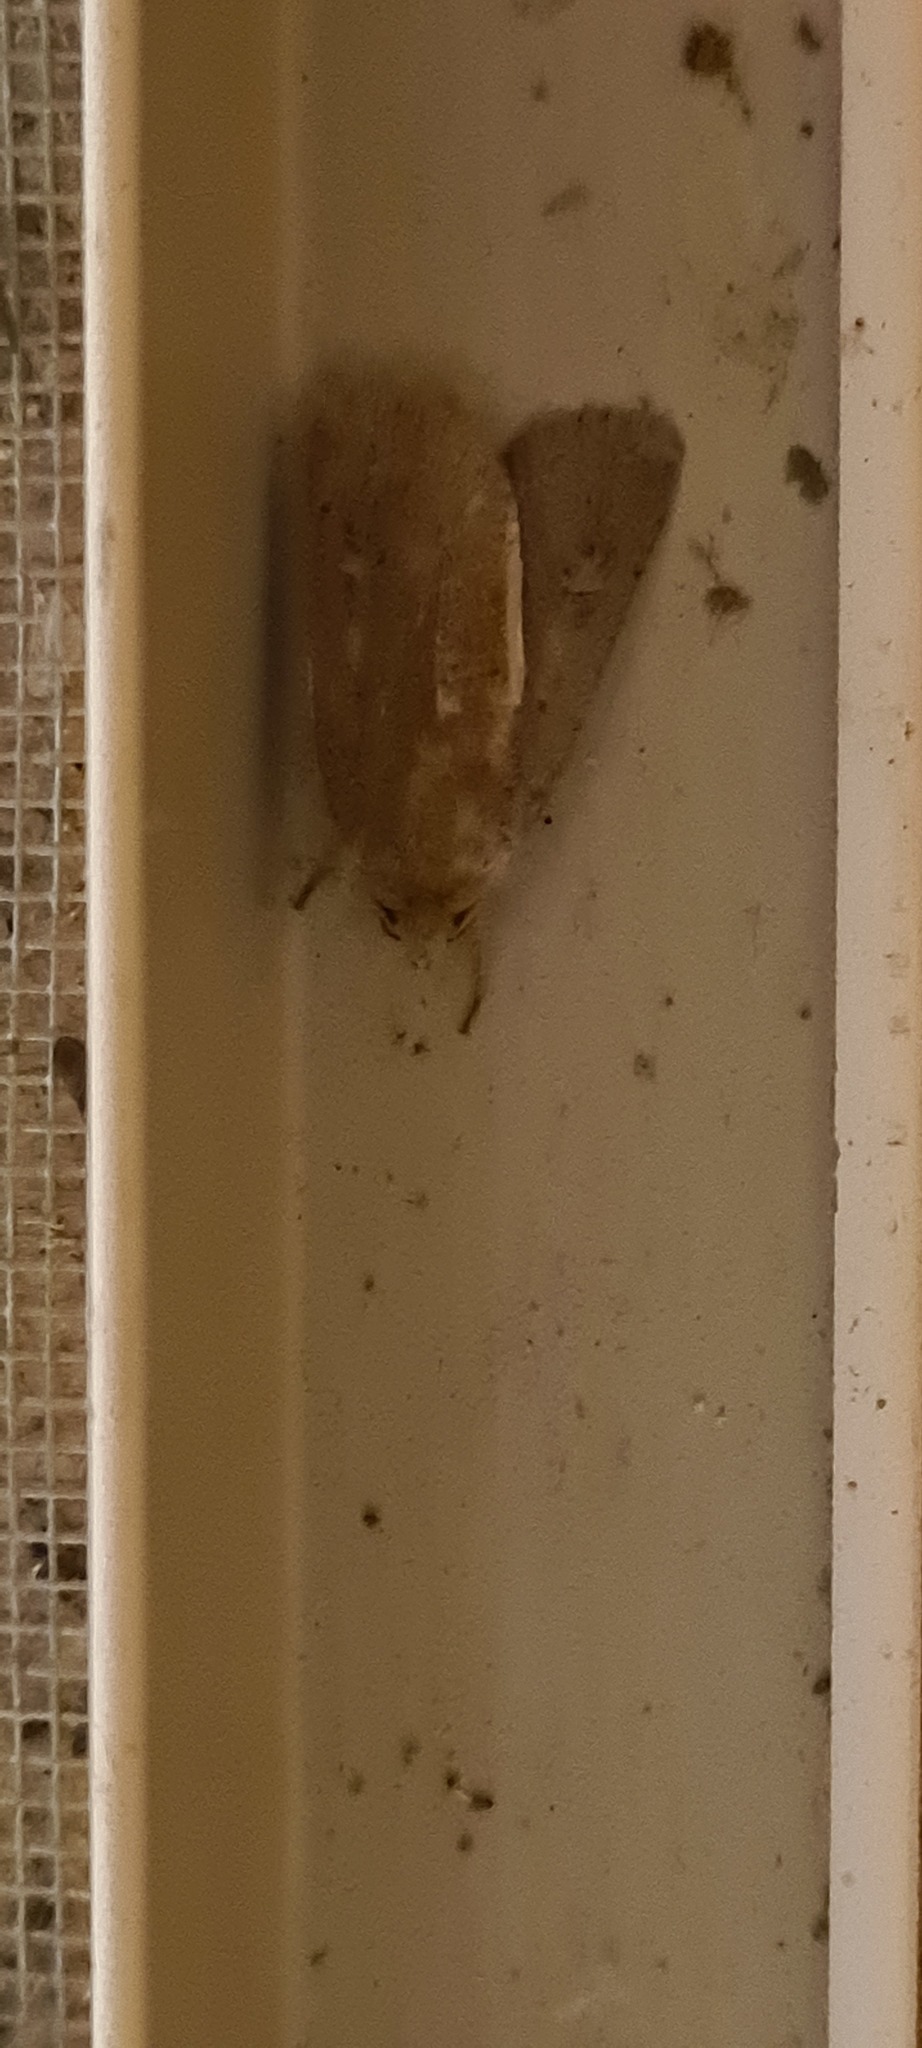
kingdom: Animalia
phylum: Arthropoda
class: Insecta
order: Lepidoptera
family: Noctuidae
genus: Xestia
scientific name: Xestia xanthographa
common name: Square-spot rustic
